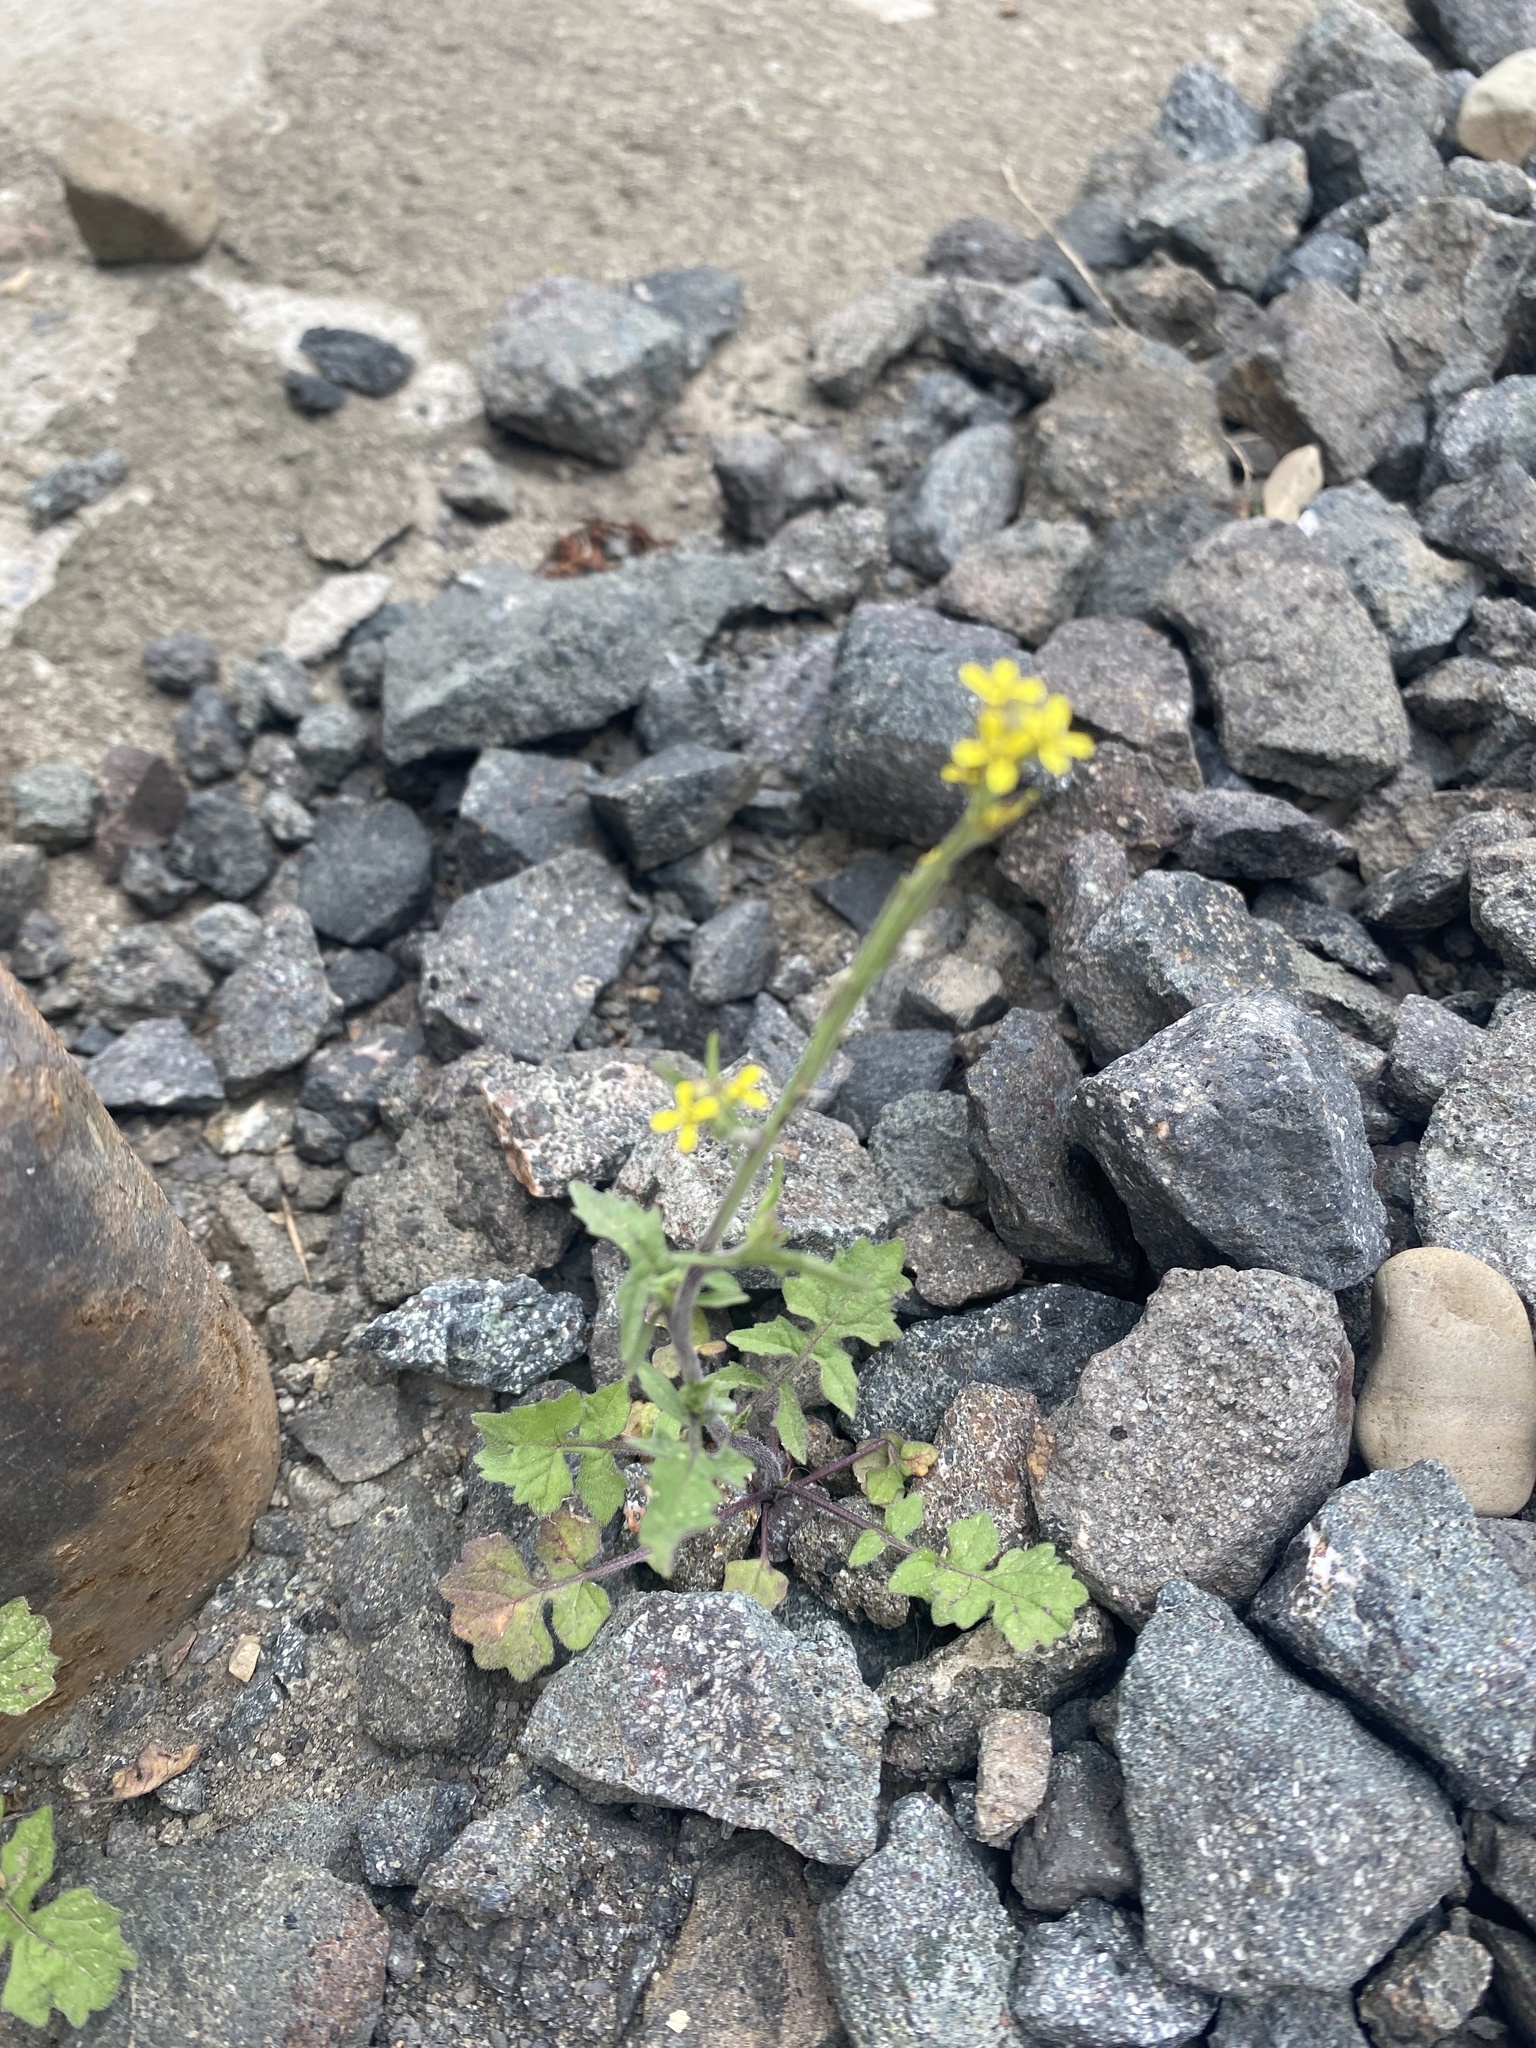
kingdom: Plantae
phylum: Tracheophyta
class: Magnoliopsida
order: Brassicales
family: Brassicaceae
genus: Sisymbrium
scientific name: Sisymbrium officinale
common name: Hedge mustard
